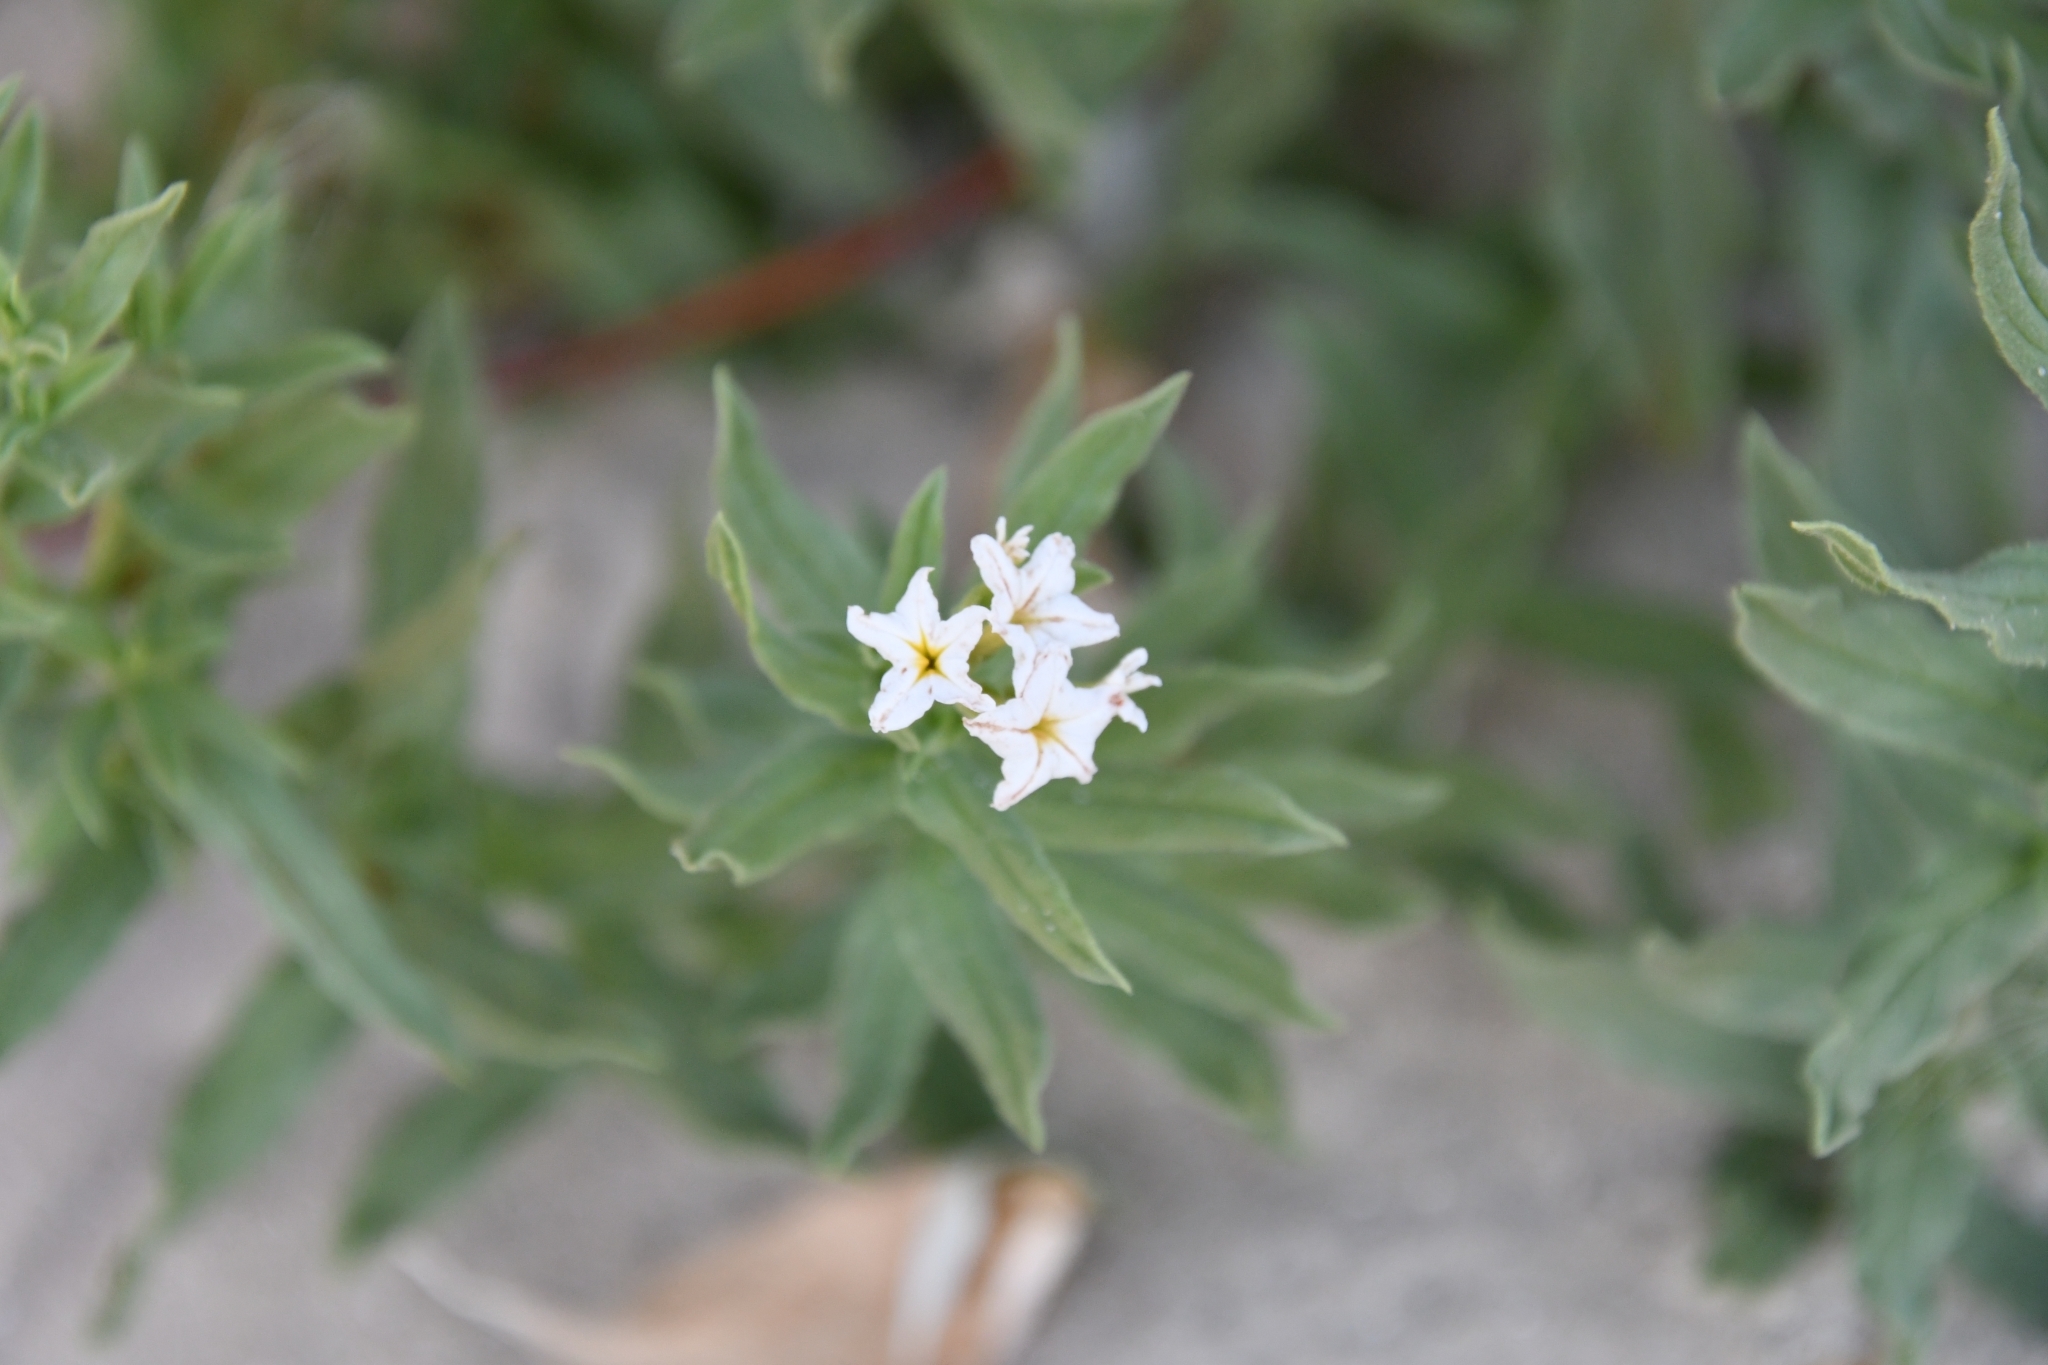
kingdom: Plantae
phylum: Tracheophyta
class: Magnoliopsida
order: Boraginales
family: Heliotropiaceae
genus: Tournefortia
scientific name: Tournefortia sibirica
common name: Siberian sea rosemary
